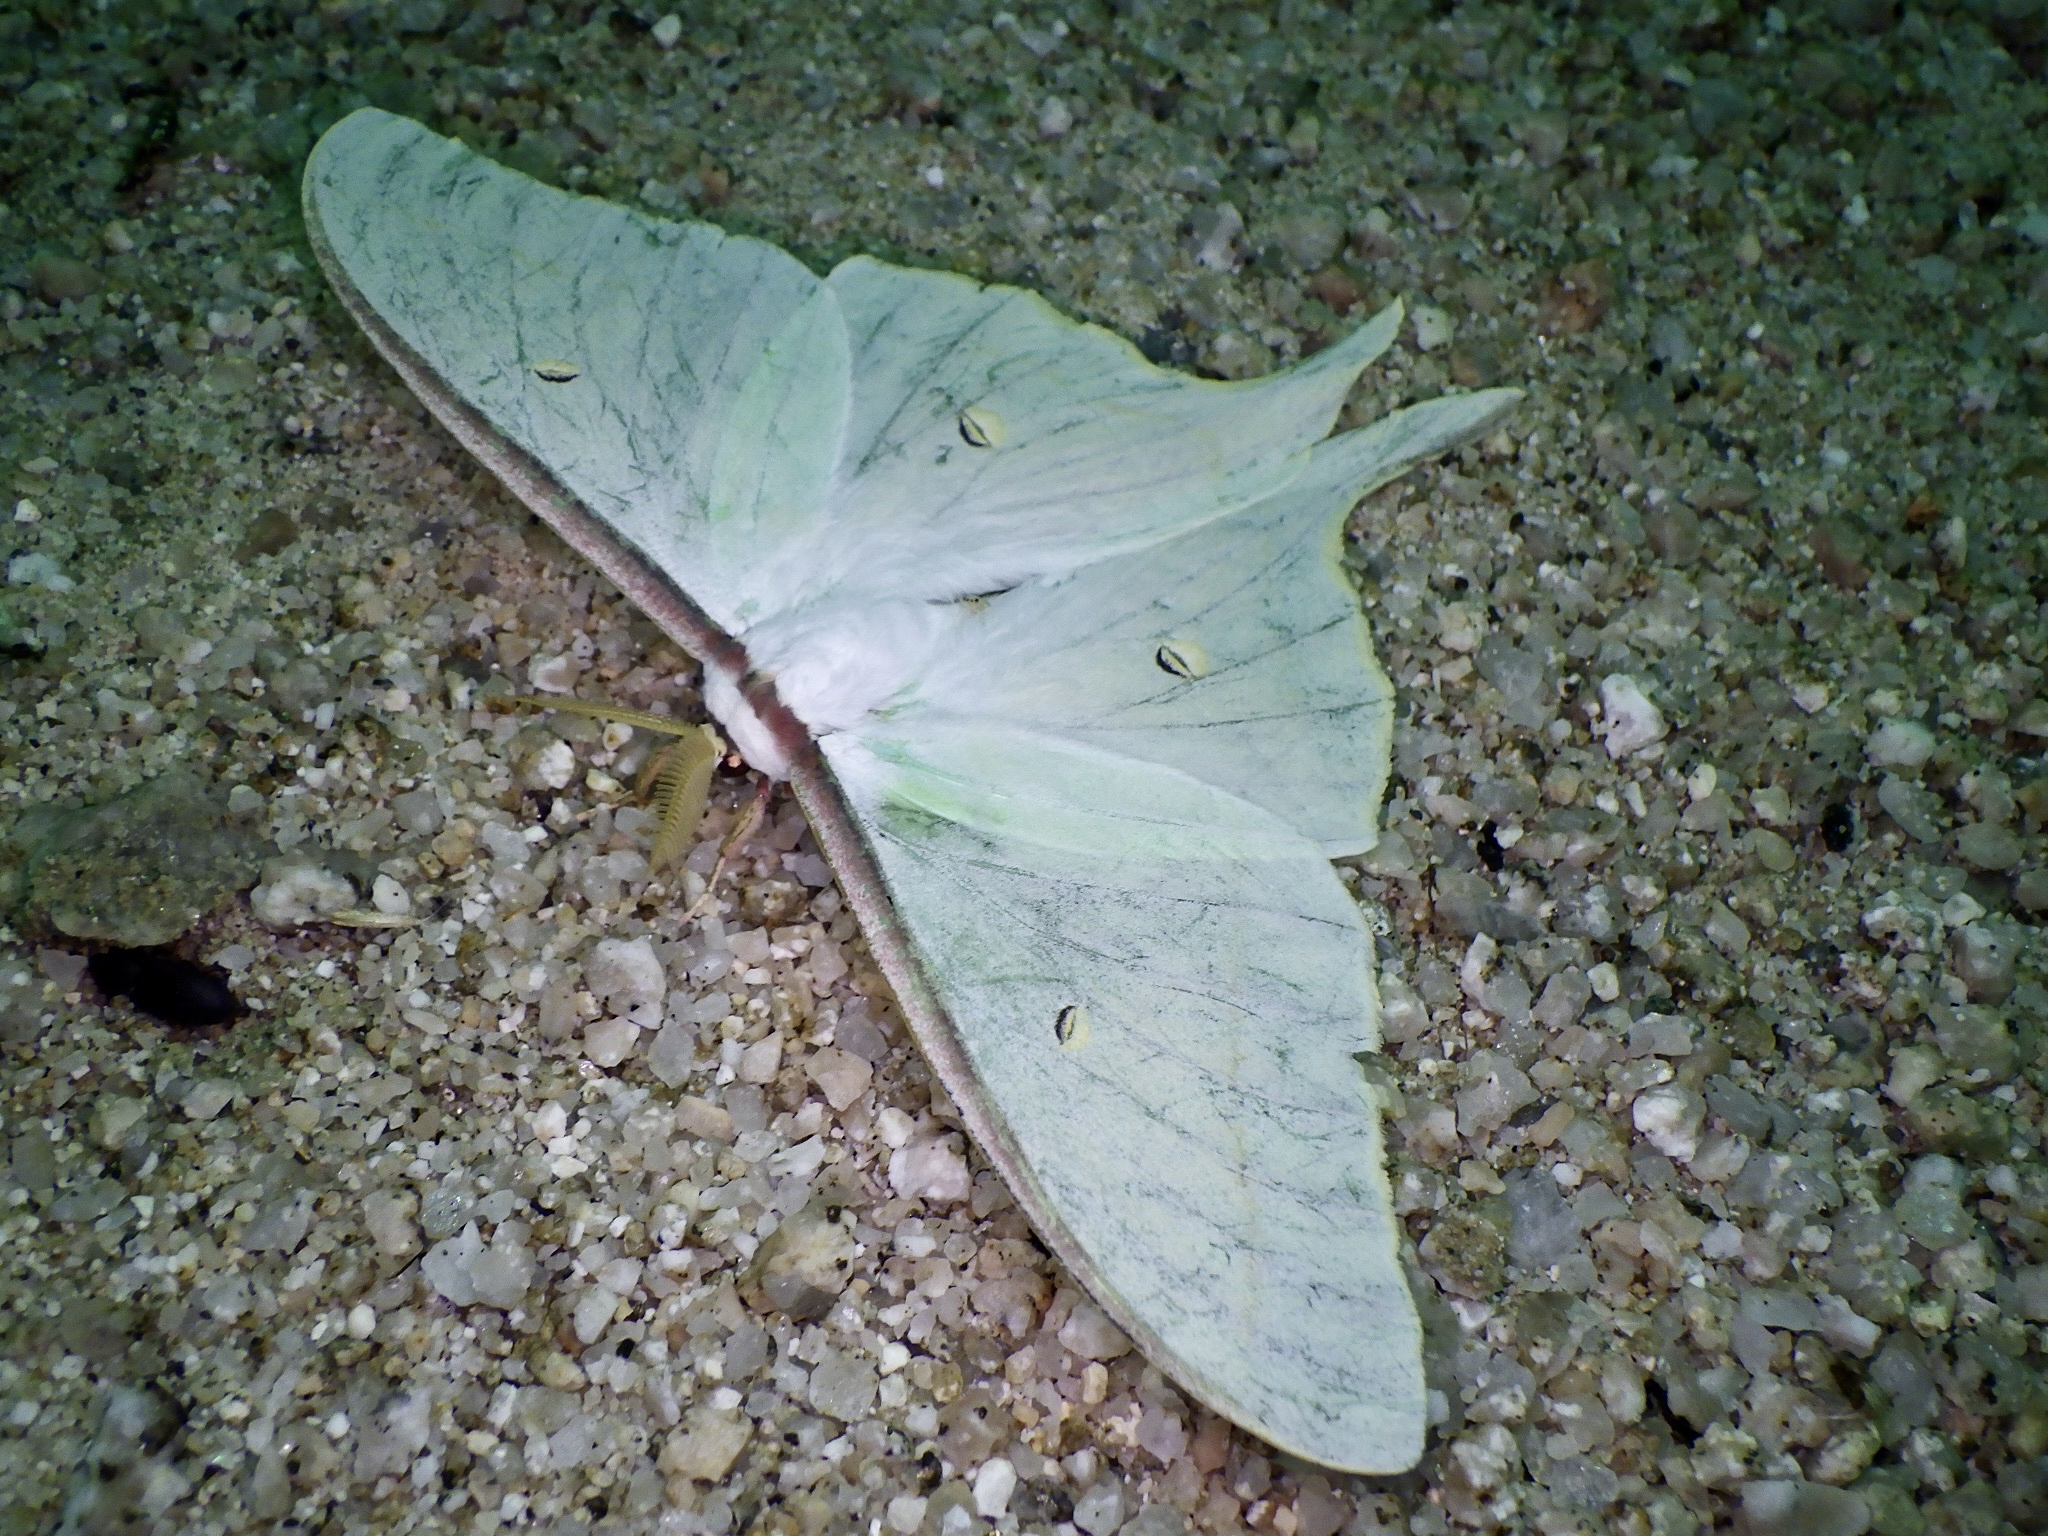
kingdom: Animalia
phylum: Arthropoda
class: Insecta
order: Lepidoptera
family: Saturniidae
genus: Actias
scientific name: Actias aliena
